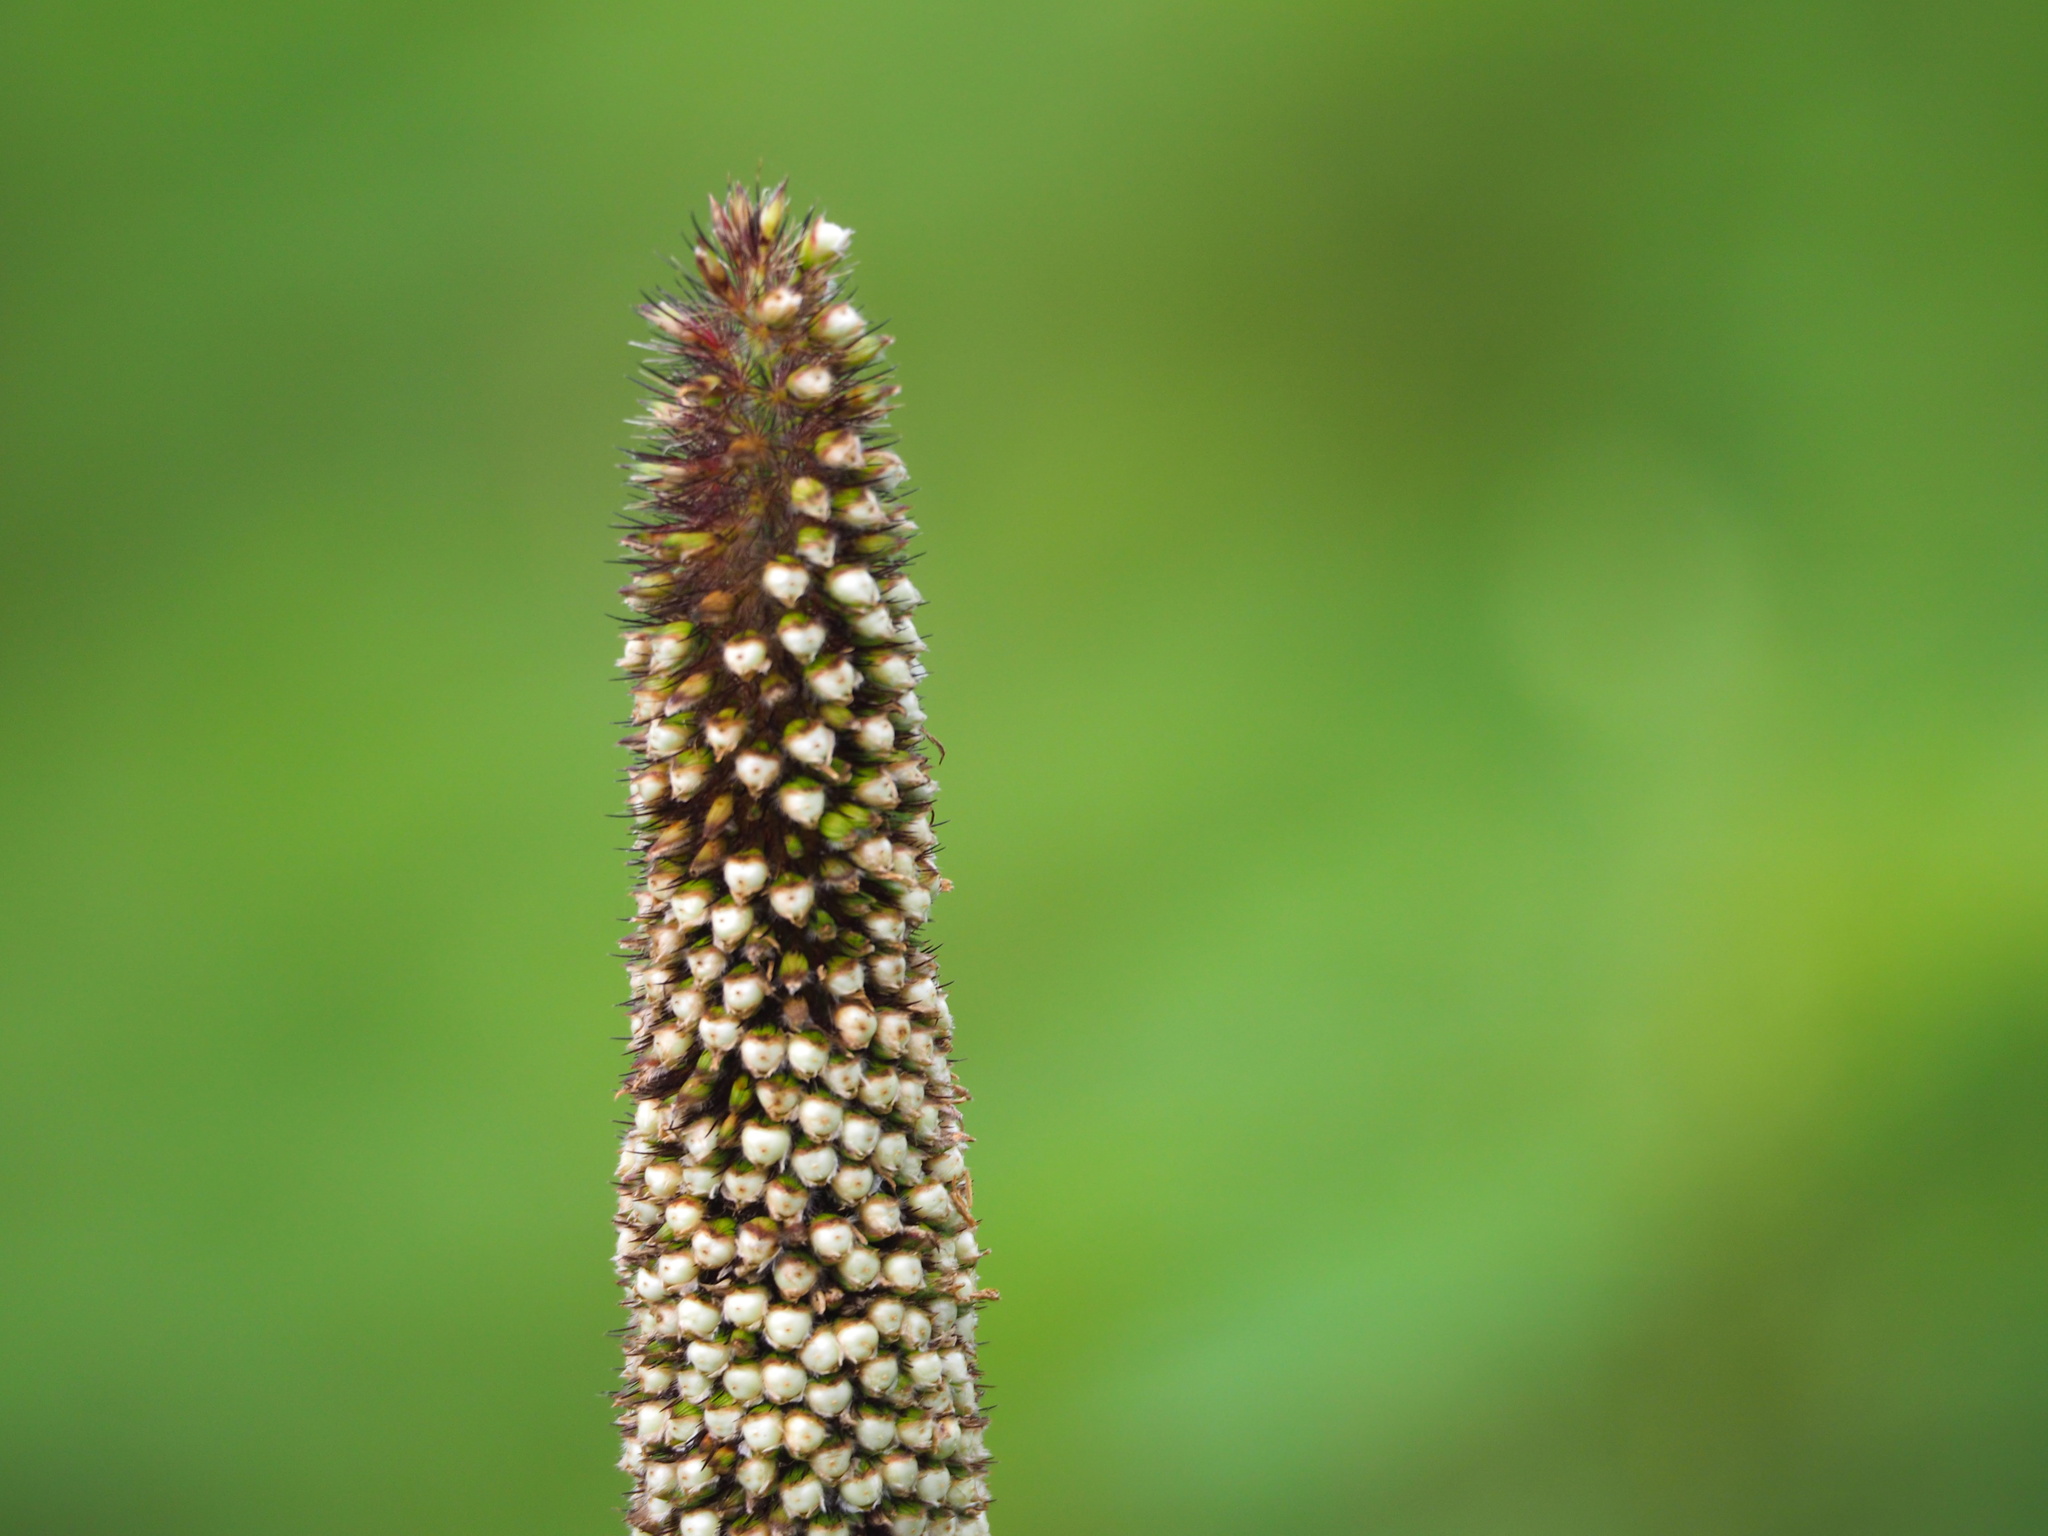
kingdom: Plantae
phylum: Tracheophyta
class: Liliopsida
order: Poales
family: Poaceae
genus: Cenchrus
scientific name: Cenchrus americanus
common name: Pearl millet
